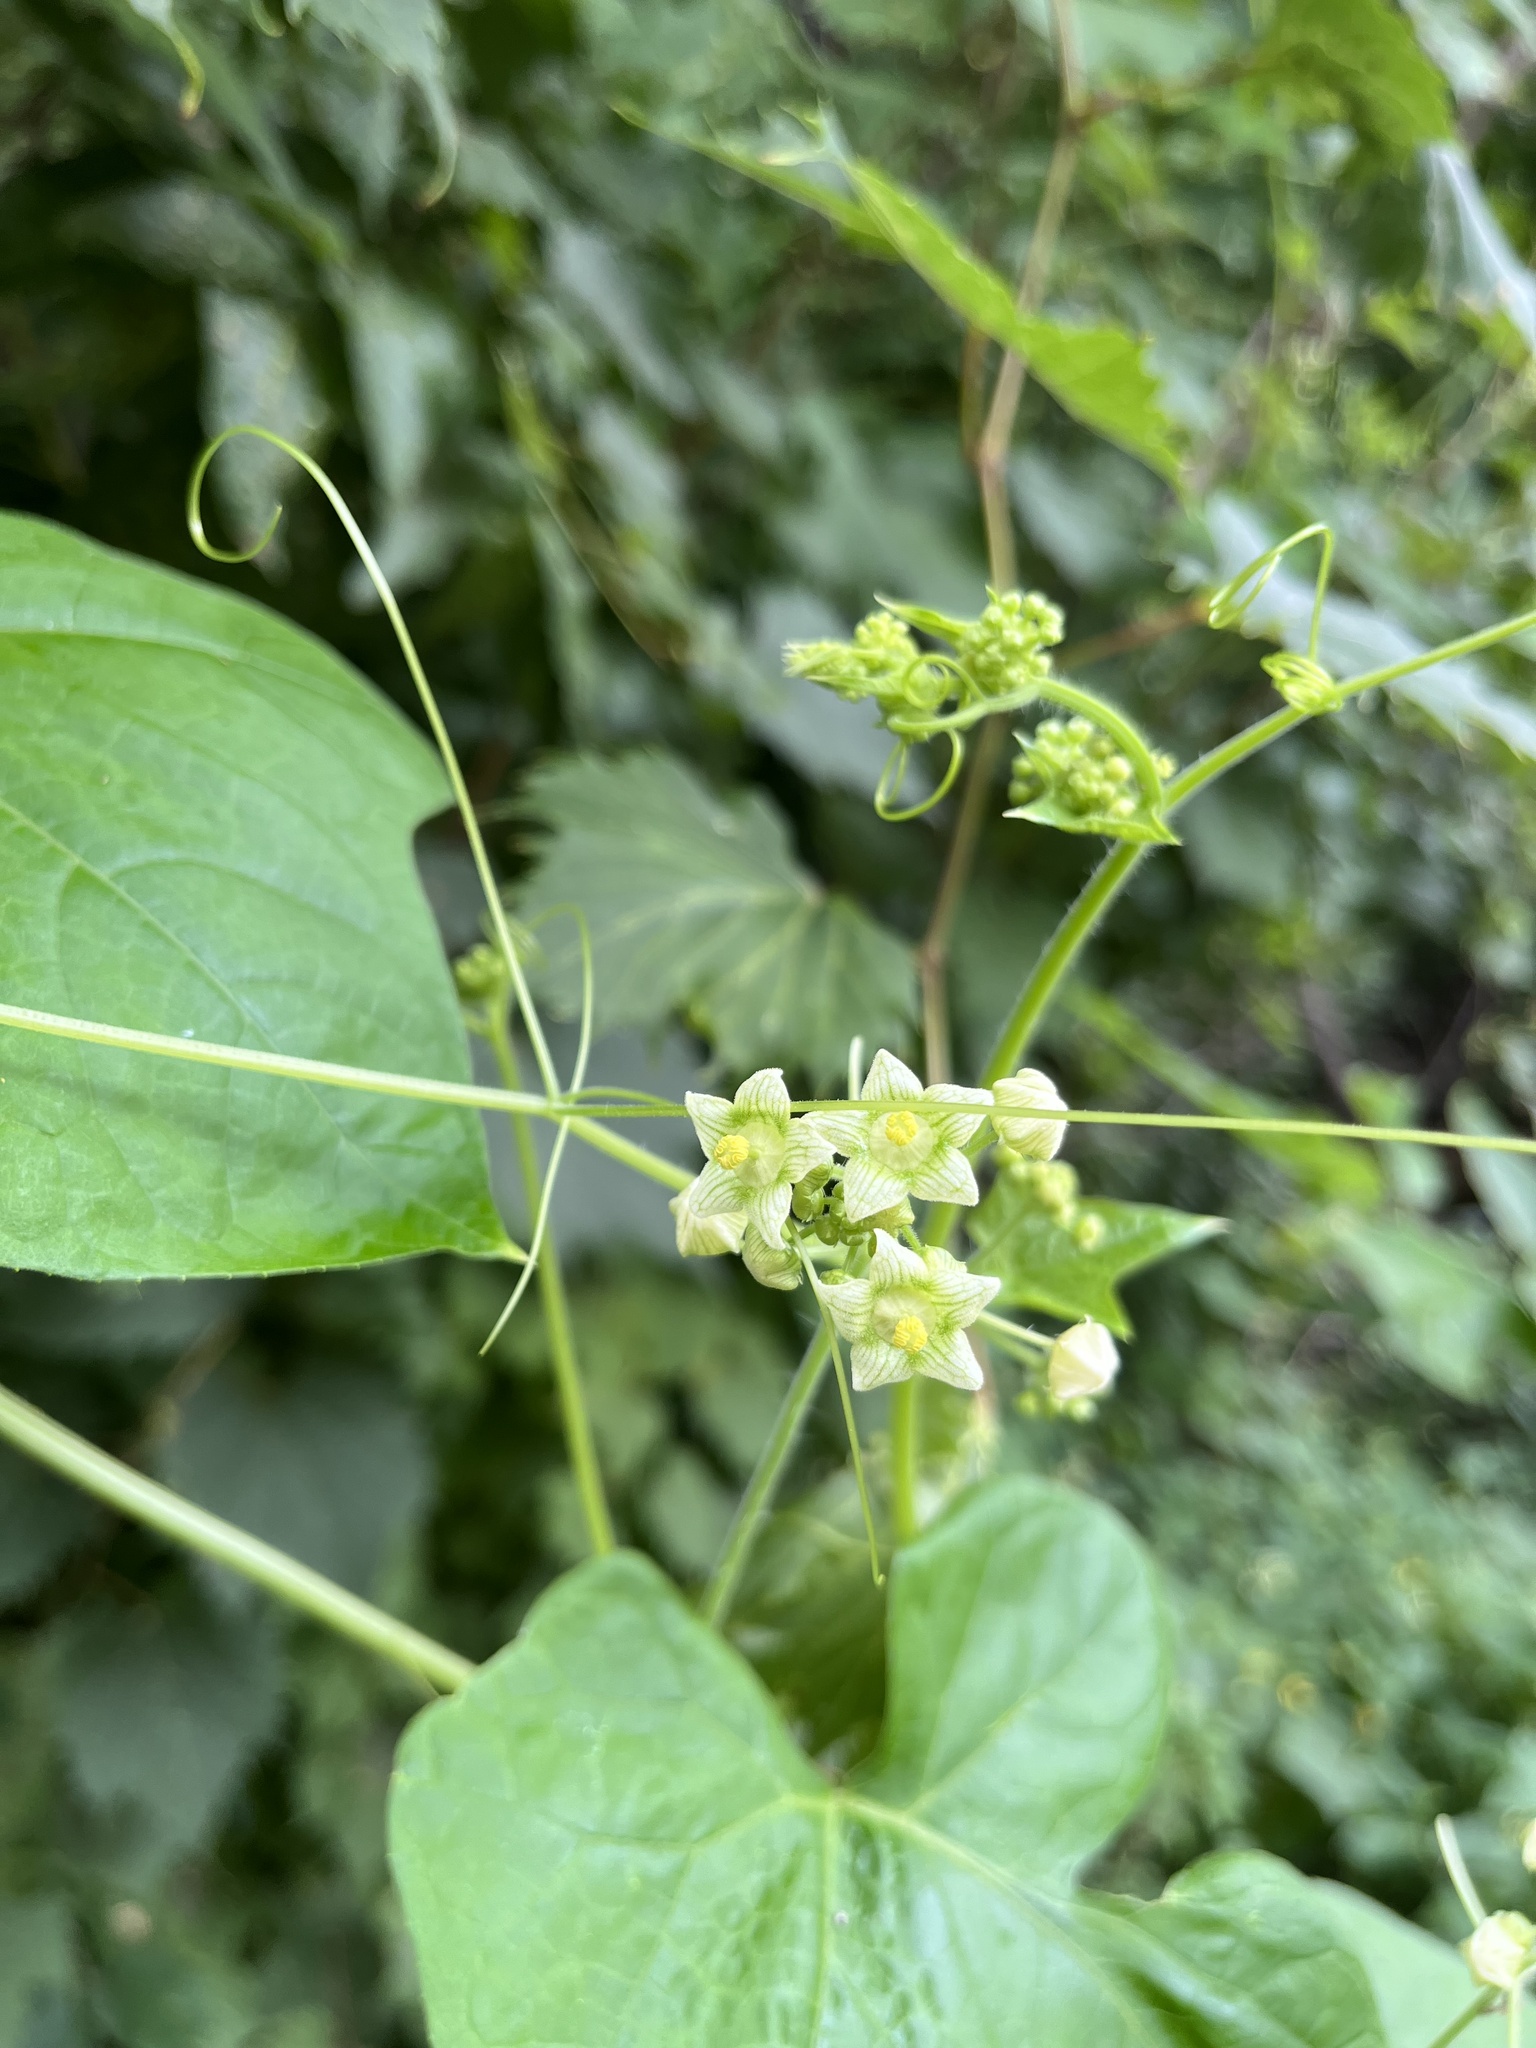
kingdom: Plantae
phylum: Tracheophyta
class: Magnoliopsida
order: Cucurbitales
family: Cucurbitaceae
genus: Sicyos
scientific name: Sicyos angulatus
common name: Angled burr cucumber
